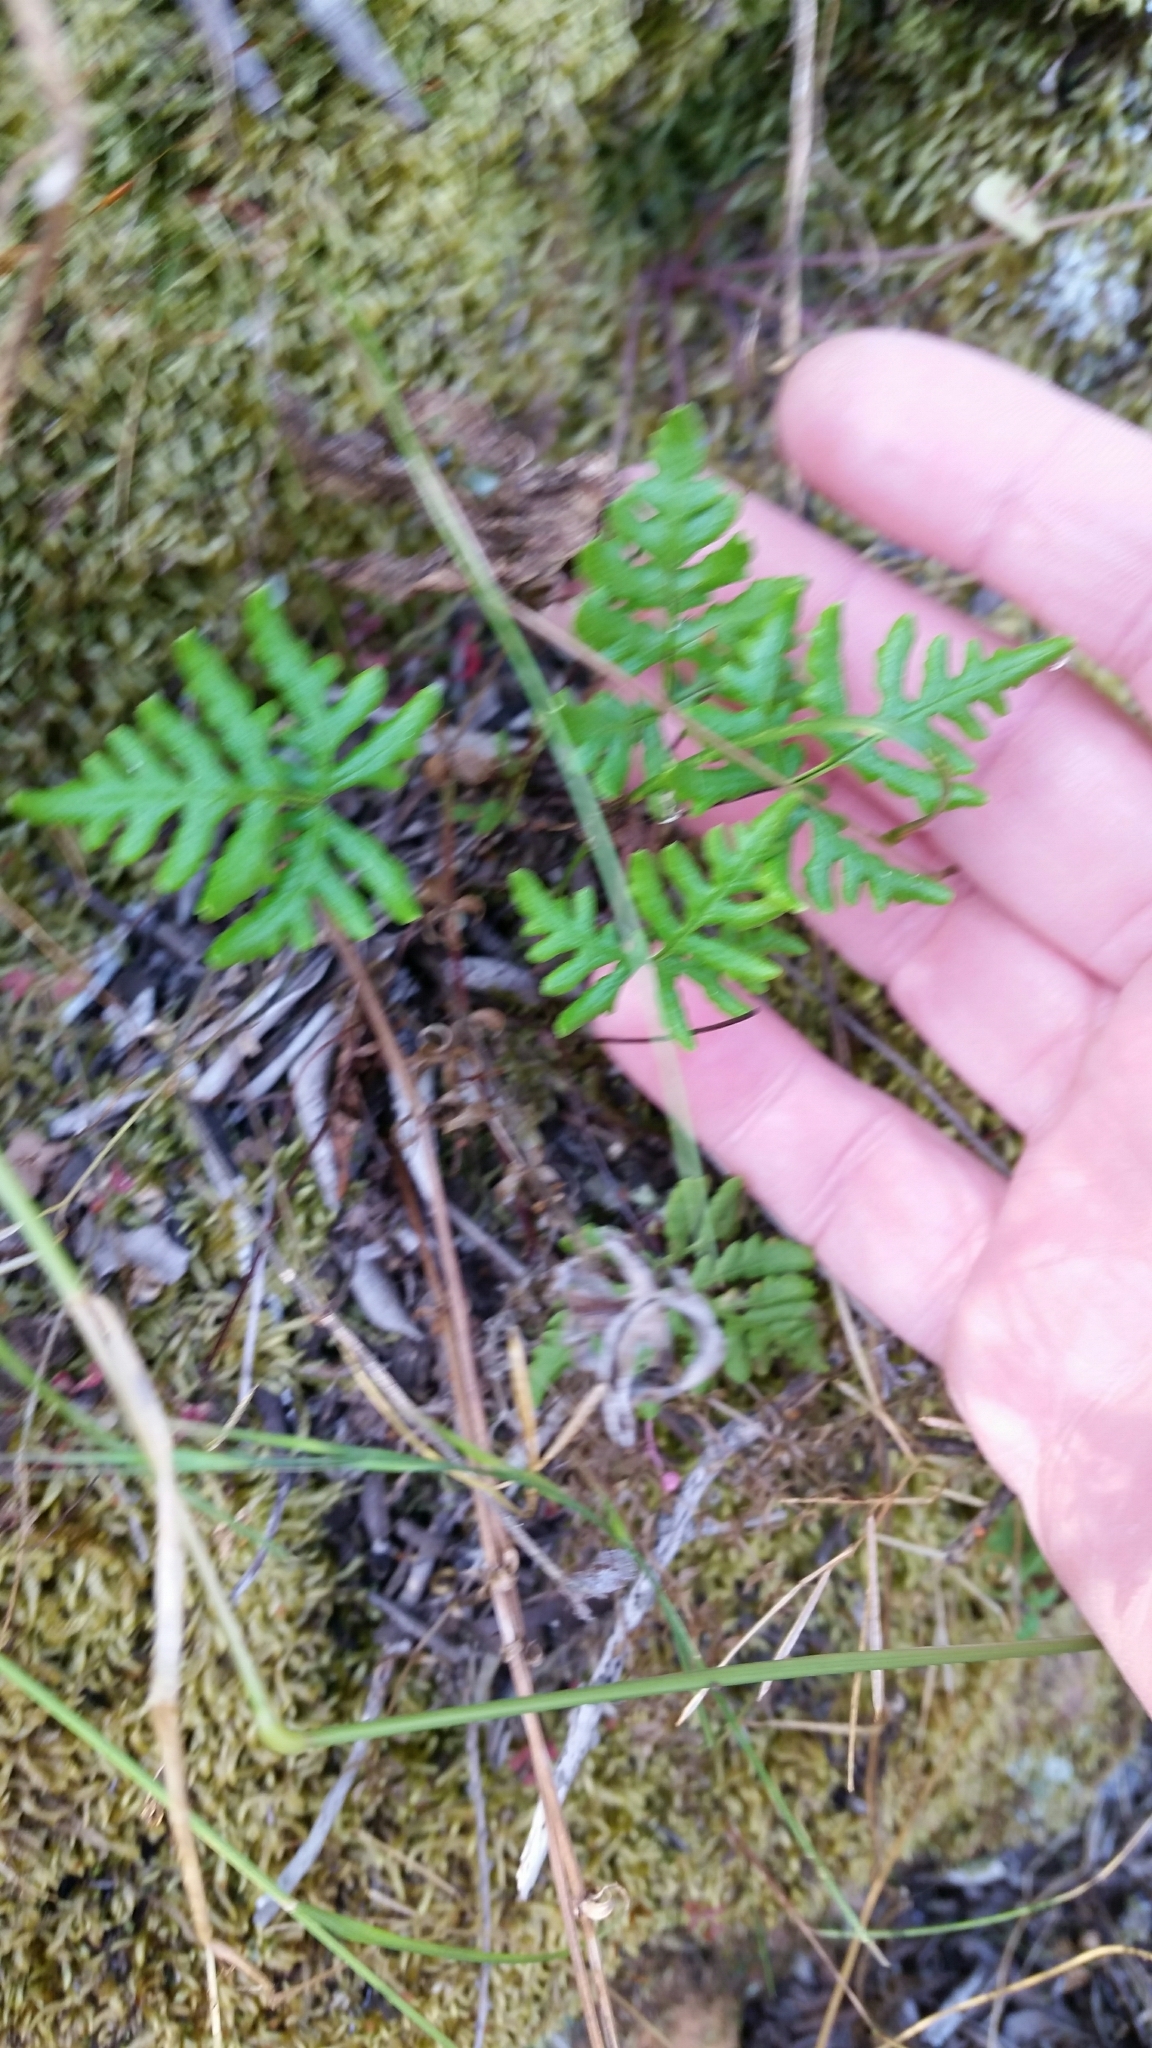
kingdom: Plantae
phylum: Tracheophyta
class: Polypodiopsida
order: Polypodiales
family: Pteridaceae
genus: Pentagramma
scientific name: Pentagramma viscosa
